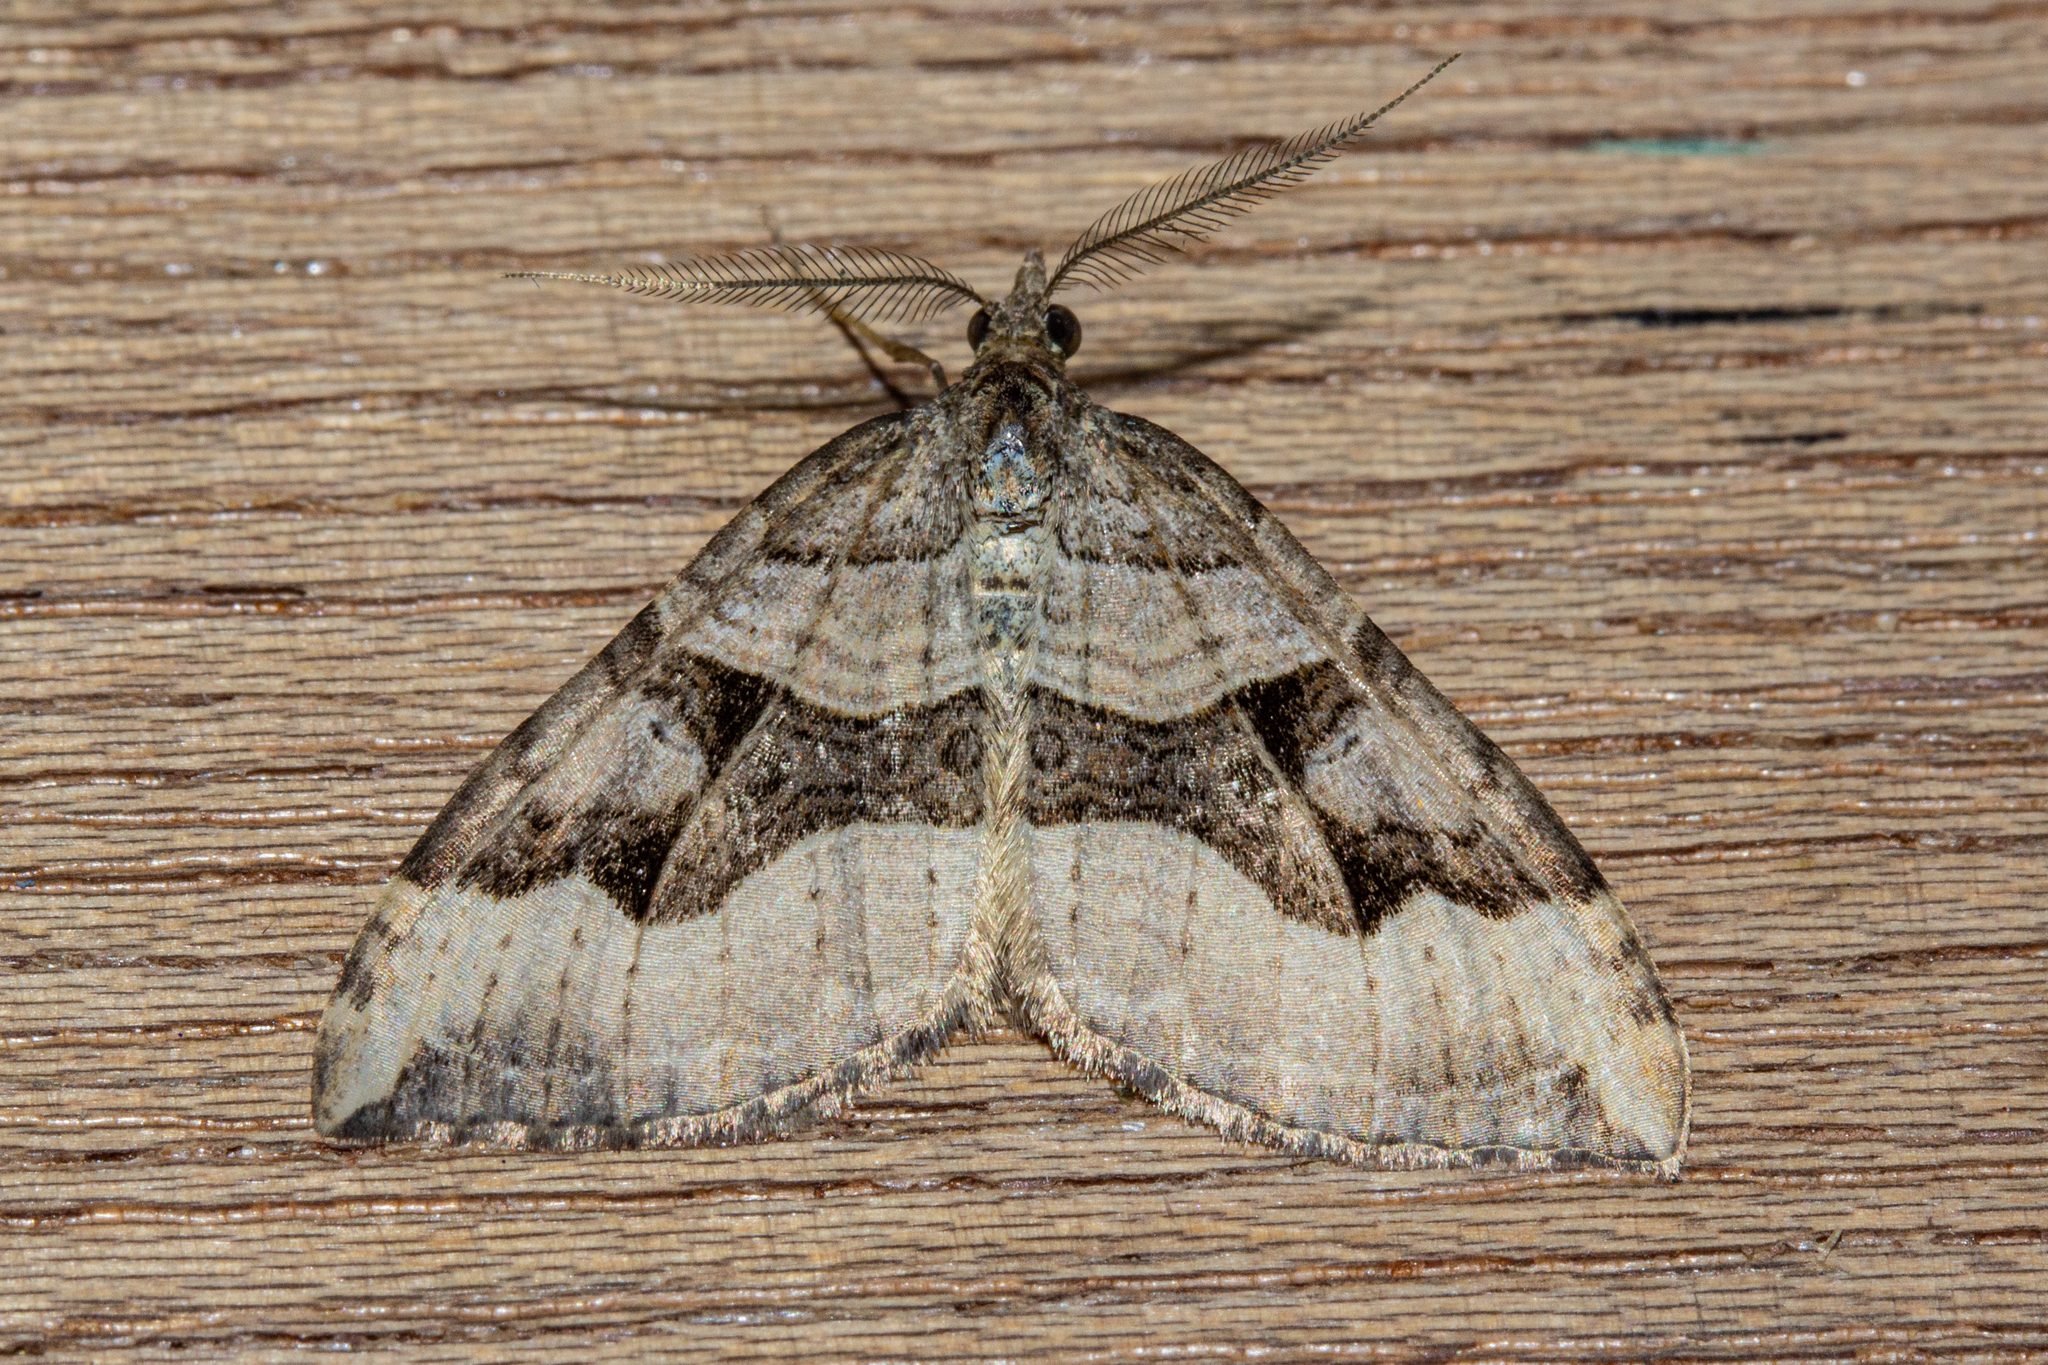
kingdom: Animalia
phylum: Arthropoda
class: Insecta
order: Lepidoptera
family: Geometridae
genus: Xanthorhoe
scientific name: Xanthorhoe semifissata
